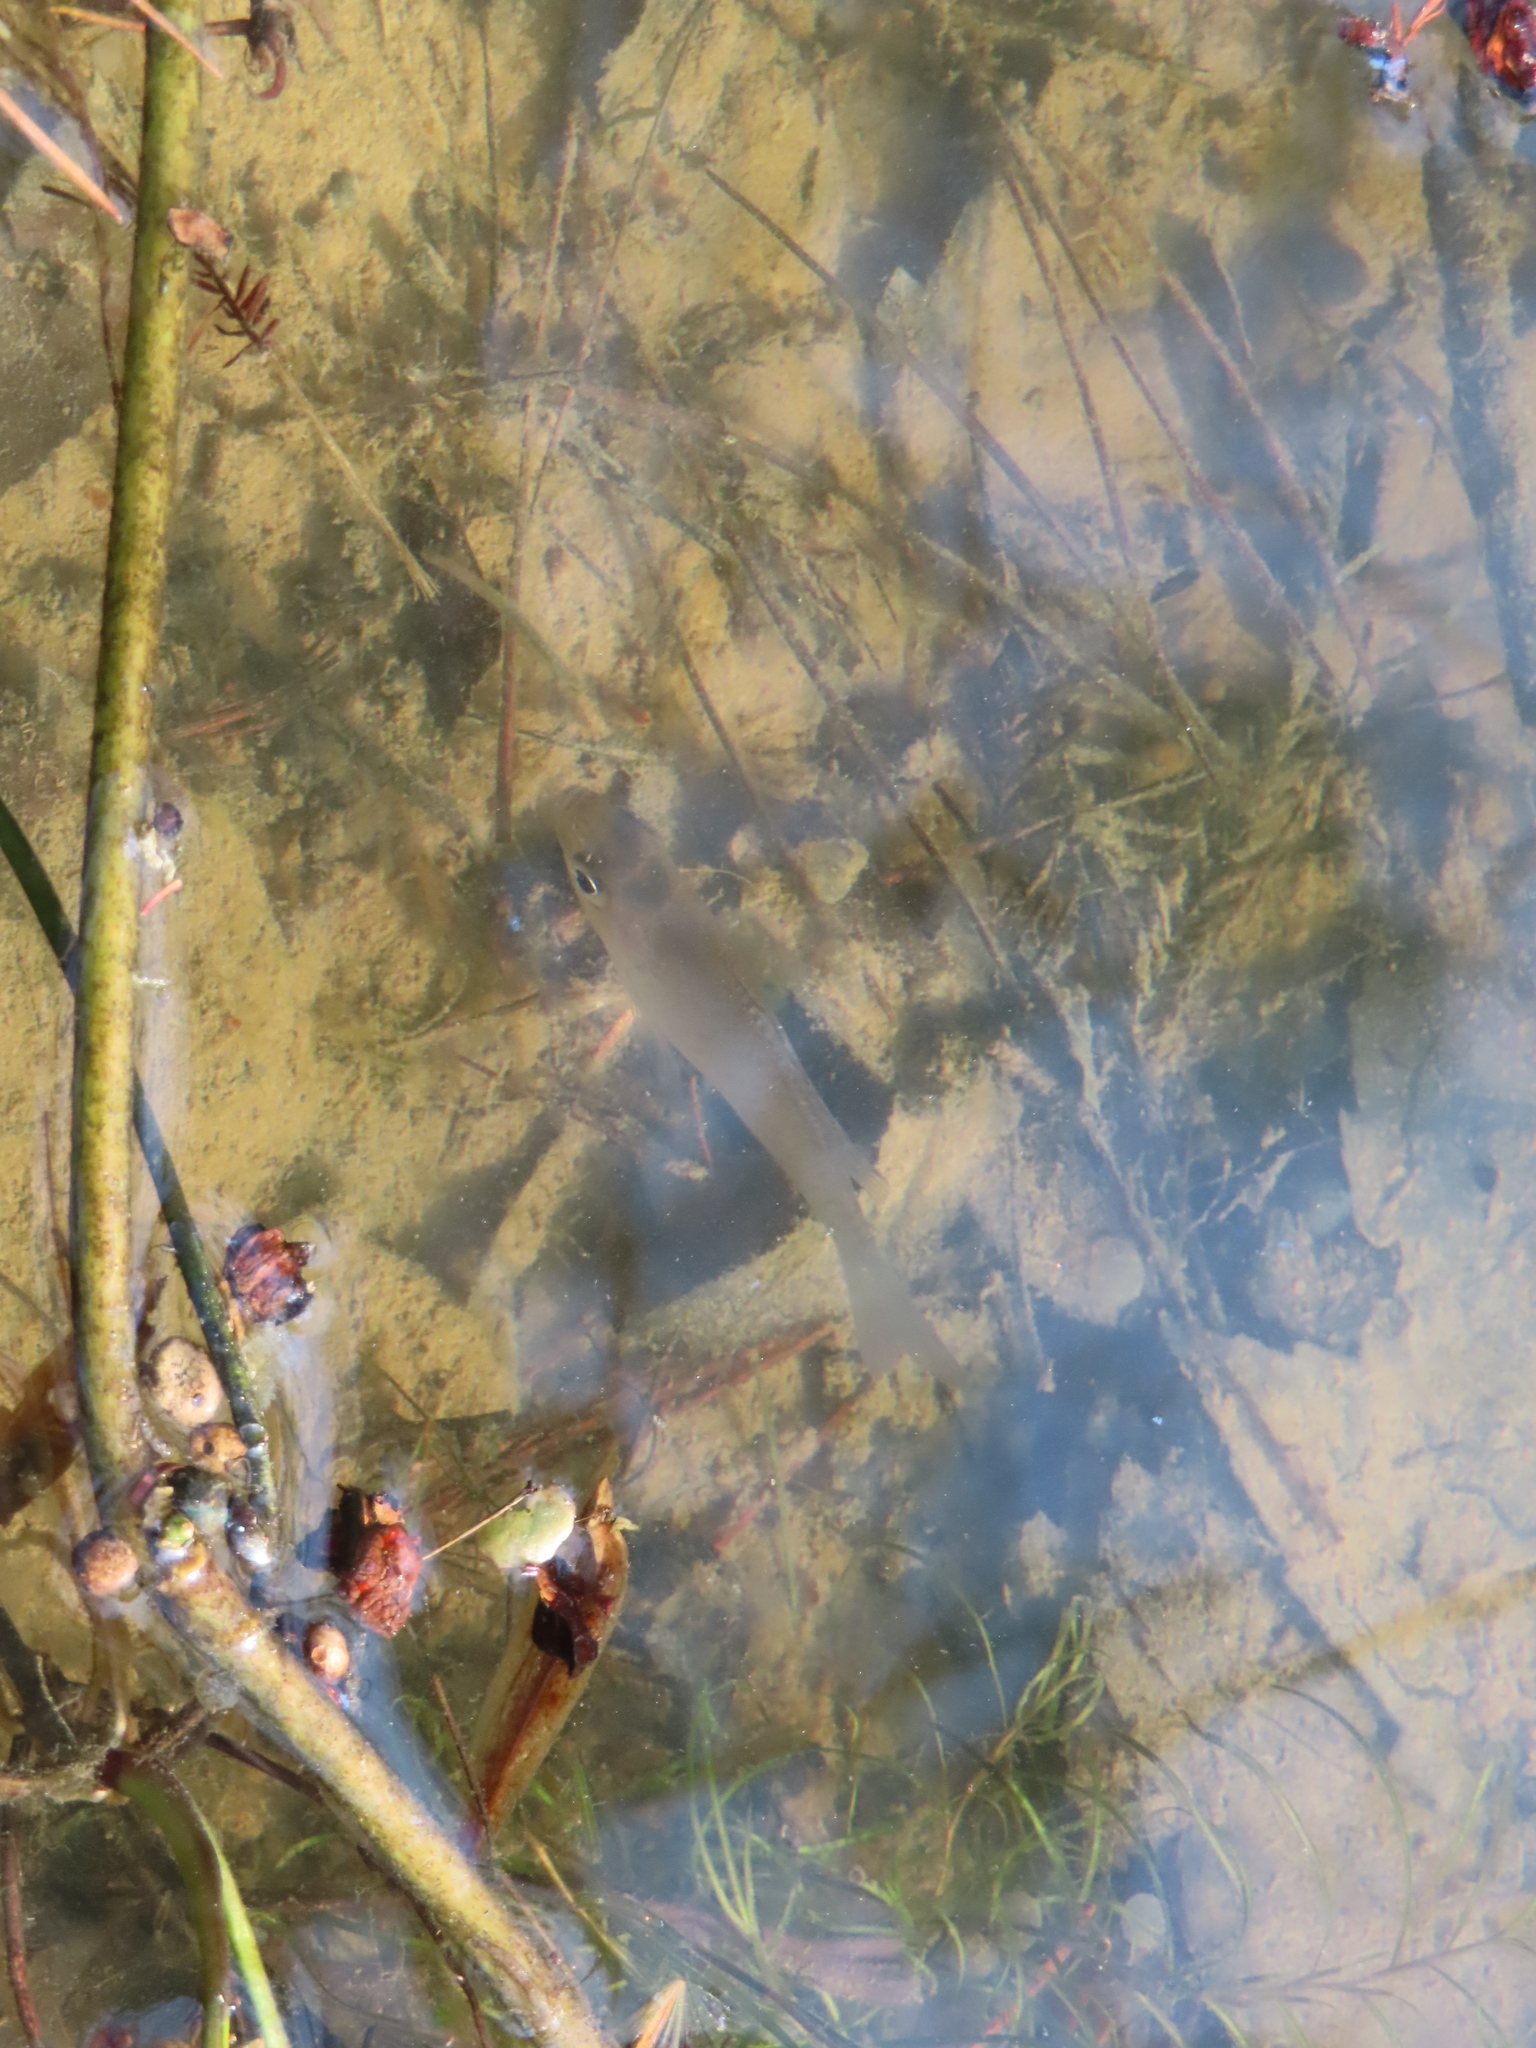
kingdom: Animalia
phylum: Chordata
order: Perciformes
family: Centrarchidae
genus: Lepomis
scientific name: Lepomis
